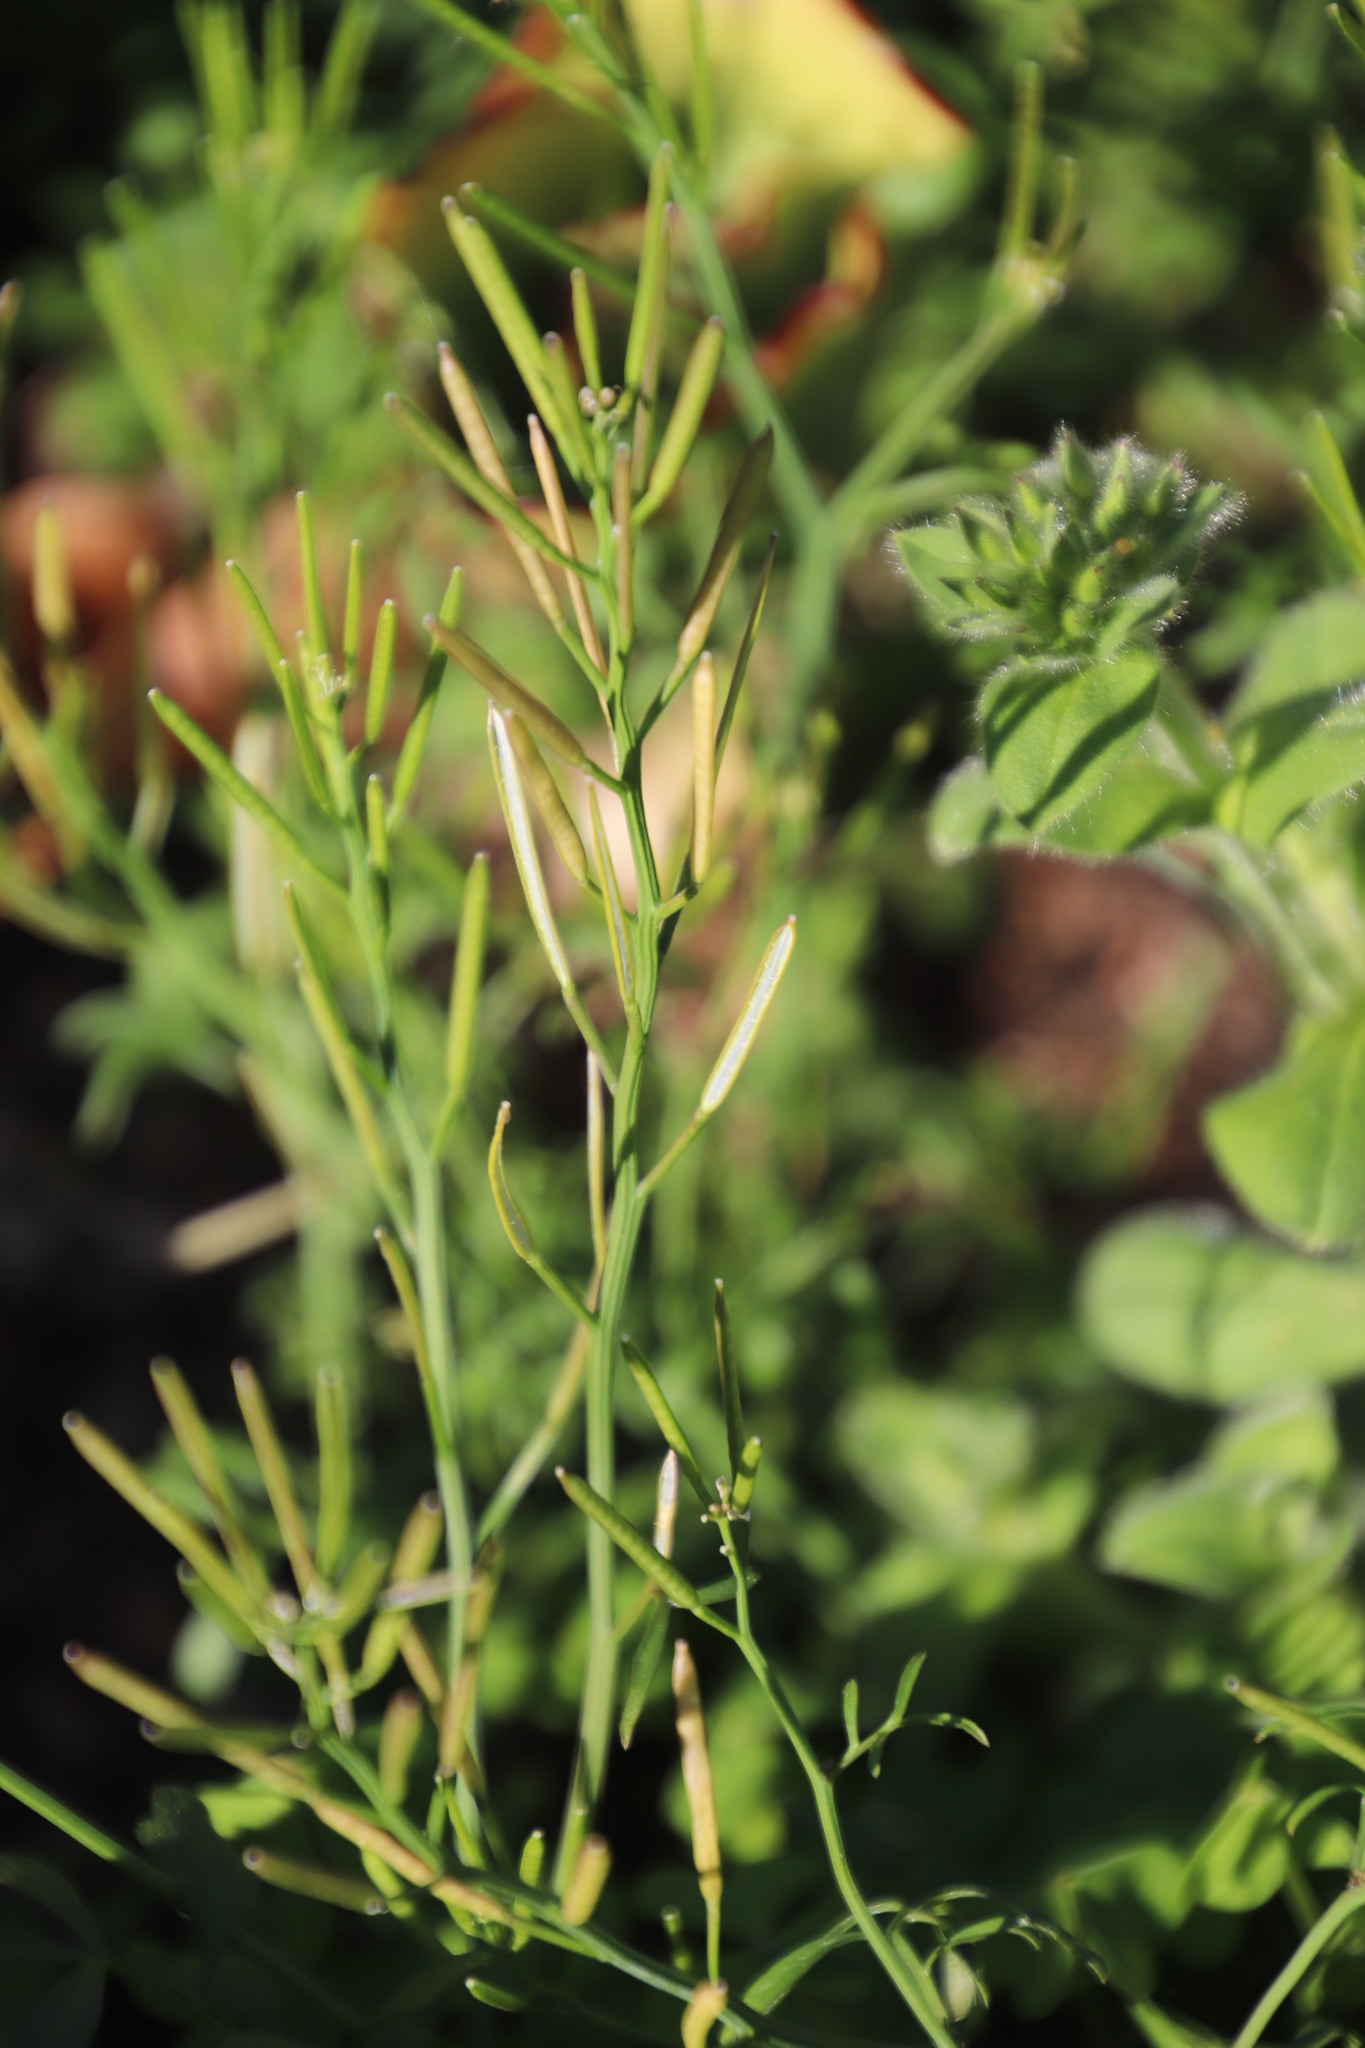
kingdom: Plantae
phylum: Tracheophyta
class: Magnoliopsida
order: Brassicales
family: Brassicaceae
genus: Cardamine
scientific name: Cardamine hirsuta
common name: Hairy bittercress
